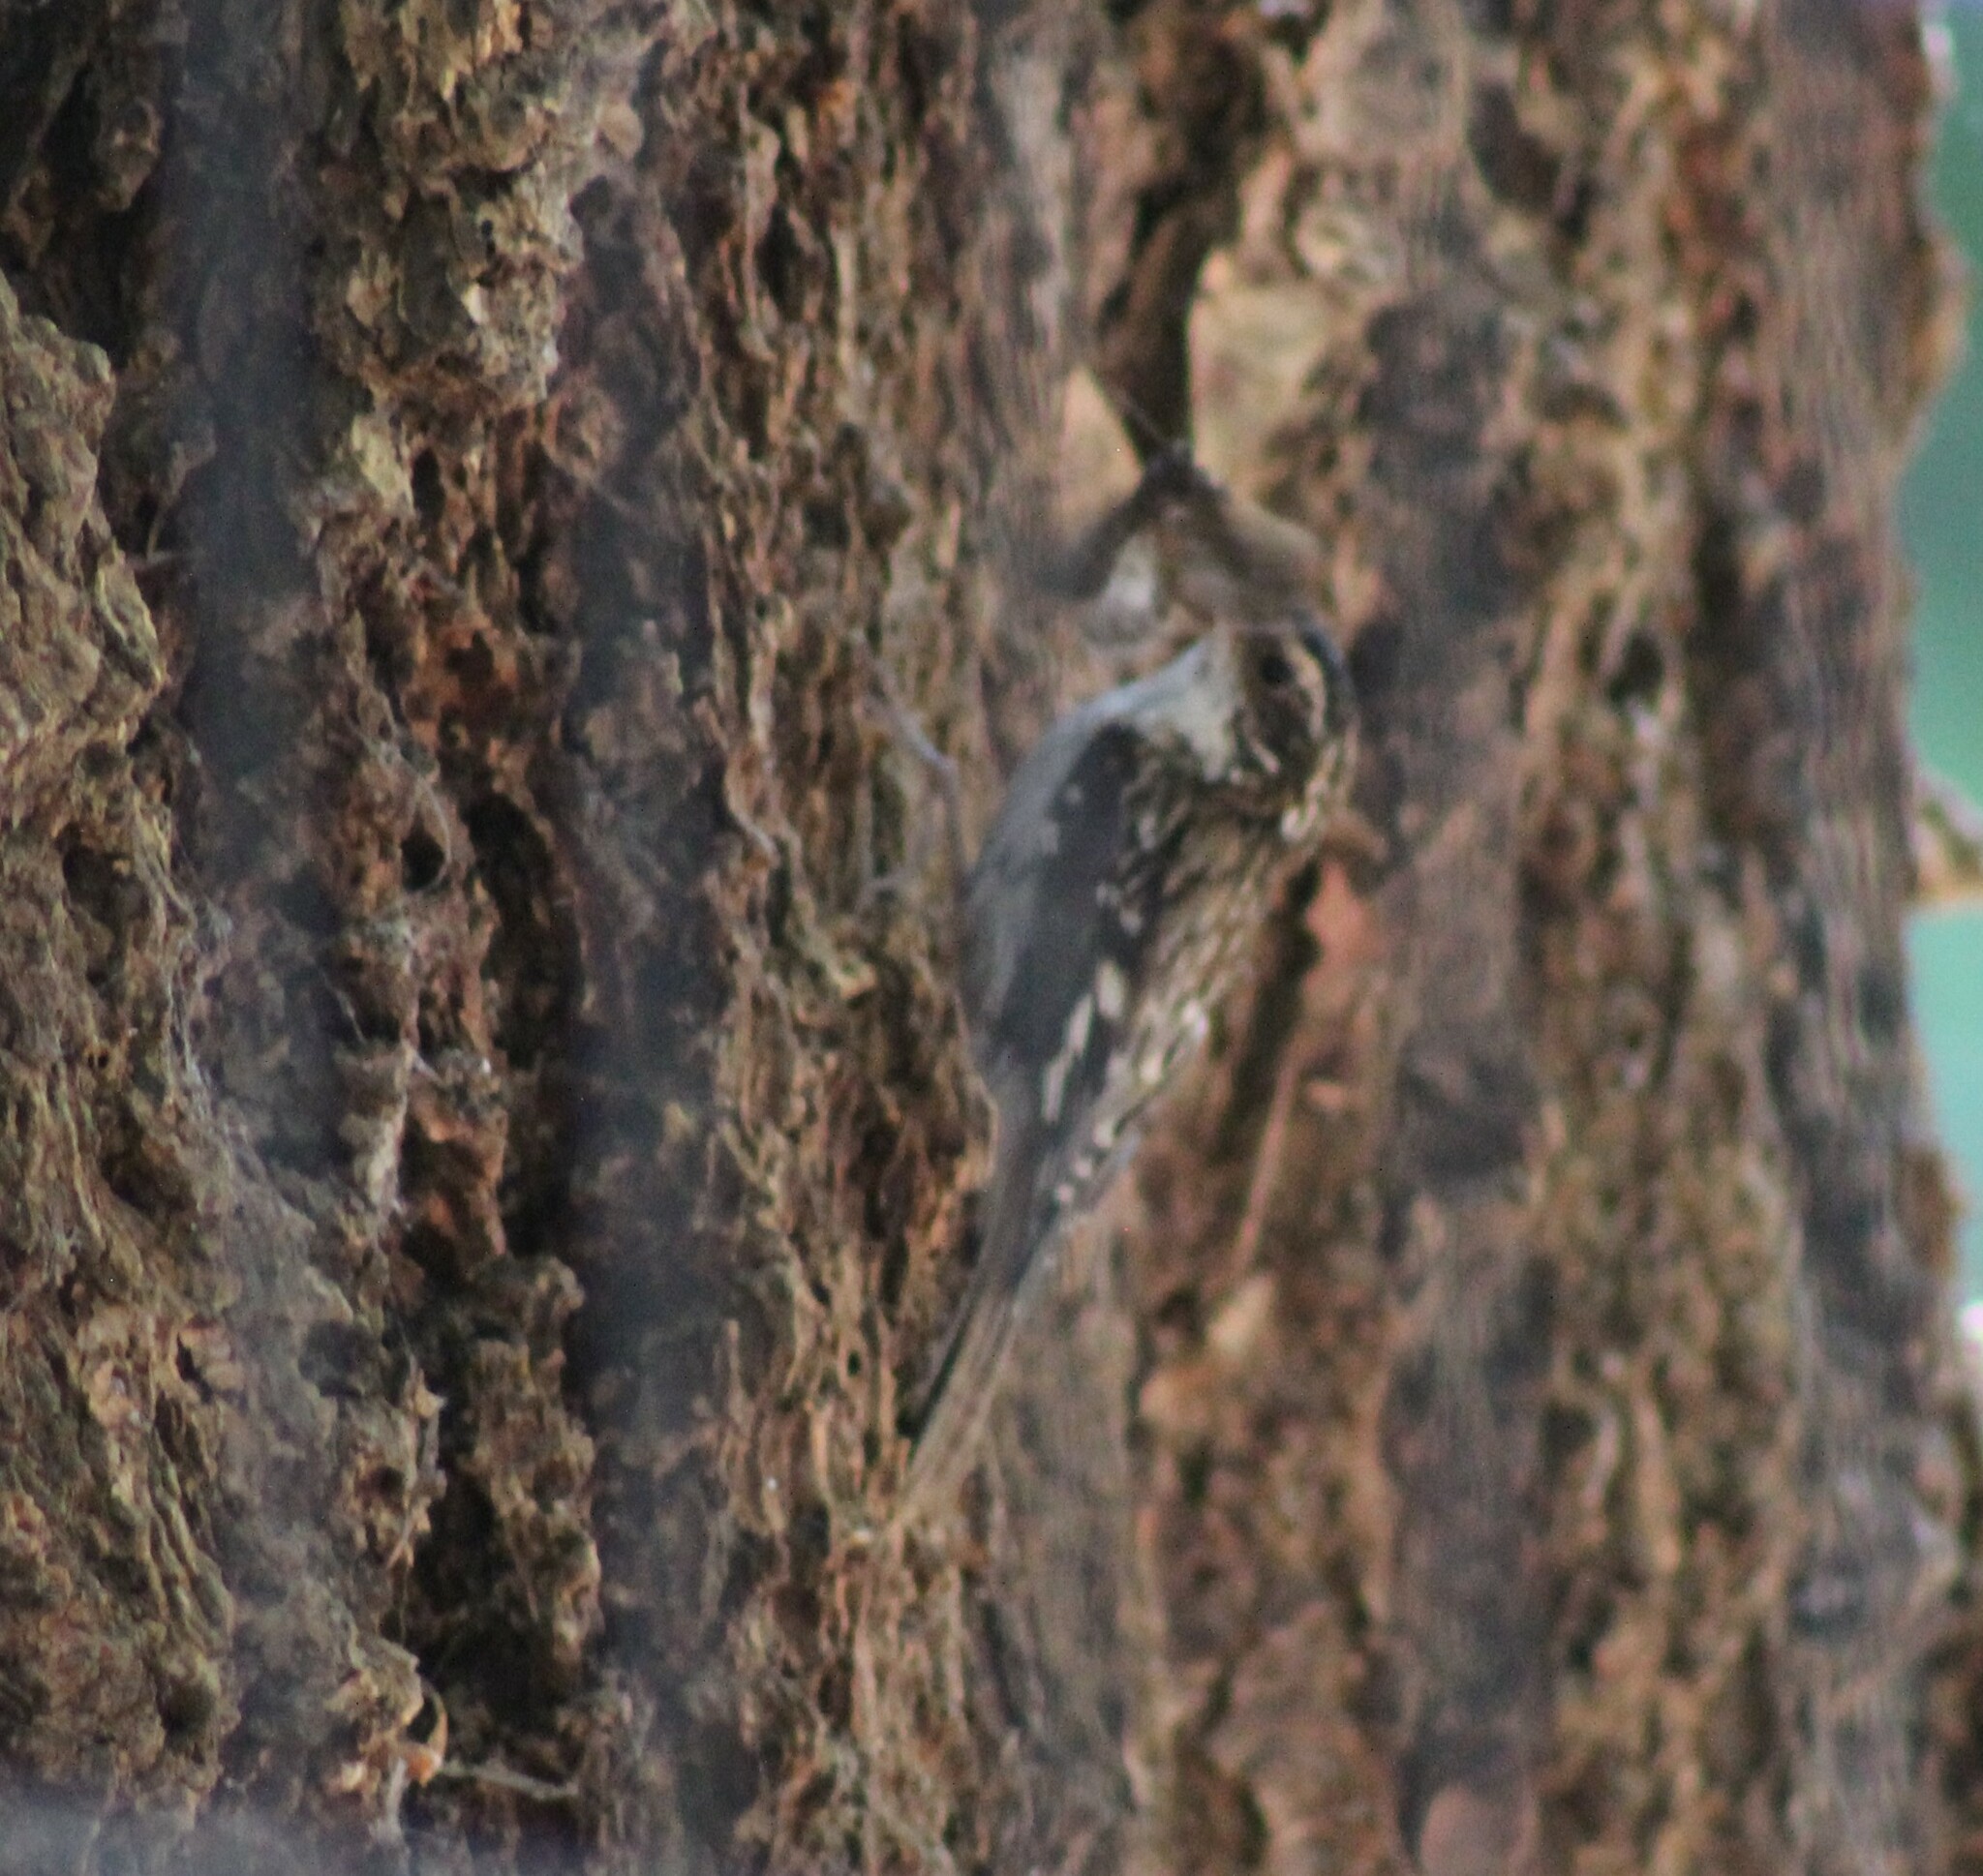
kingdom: Animalia
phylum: Chordata
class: Aves
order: Passeriformes
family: Certhiidae
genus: Certhia
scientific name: Certhia americana
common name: Brown creeper
